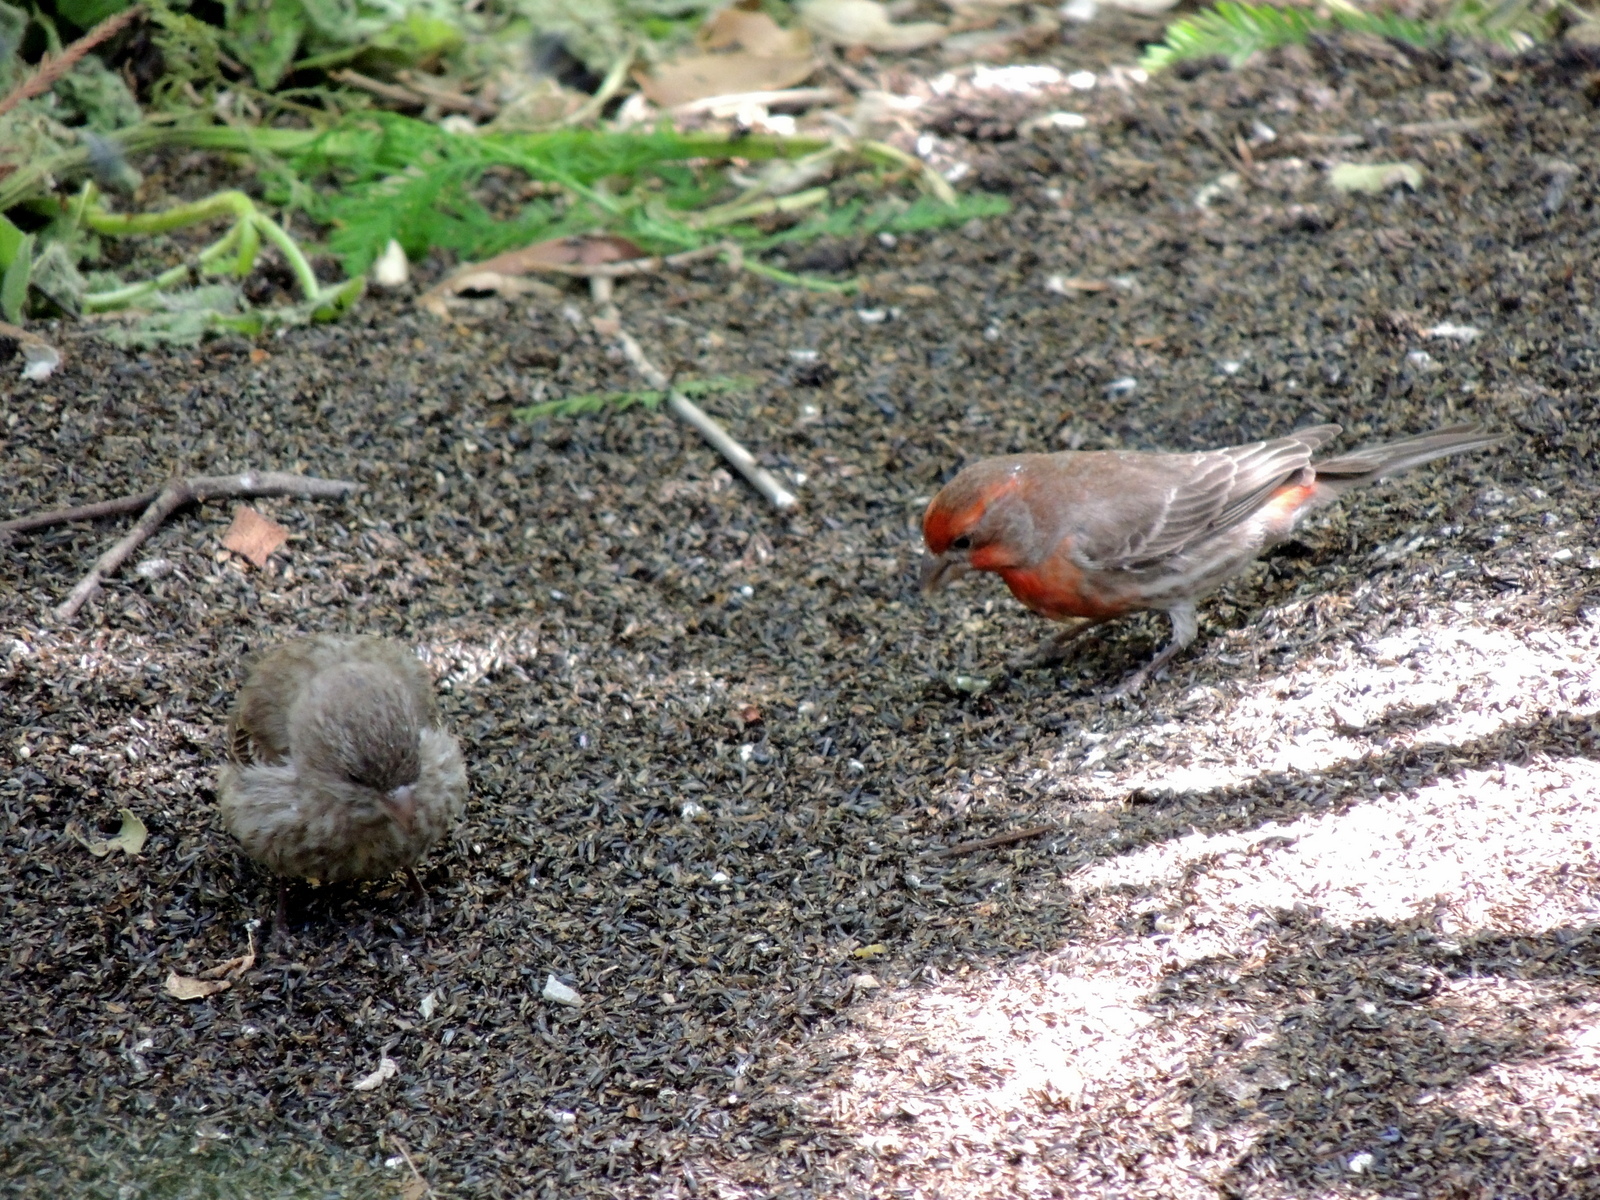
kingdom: Animalia
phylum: Chordata
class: Aves
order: Passeriformes
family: Fringillidae
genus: Haemorhous
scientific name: Haemorhous mexicanus
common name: House finch
